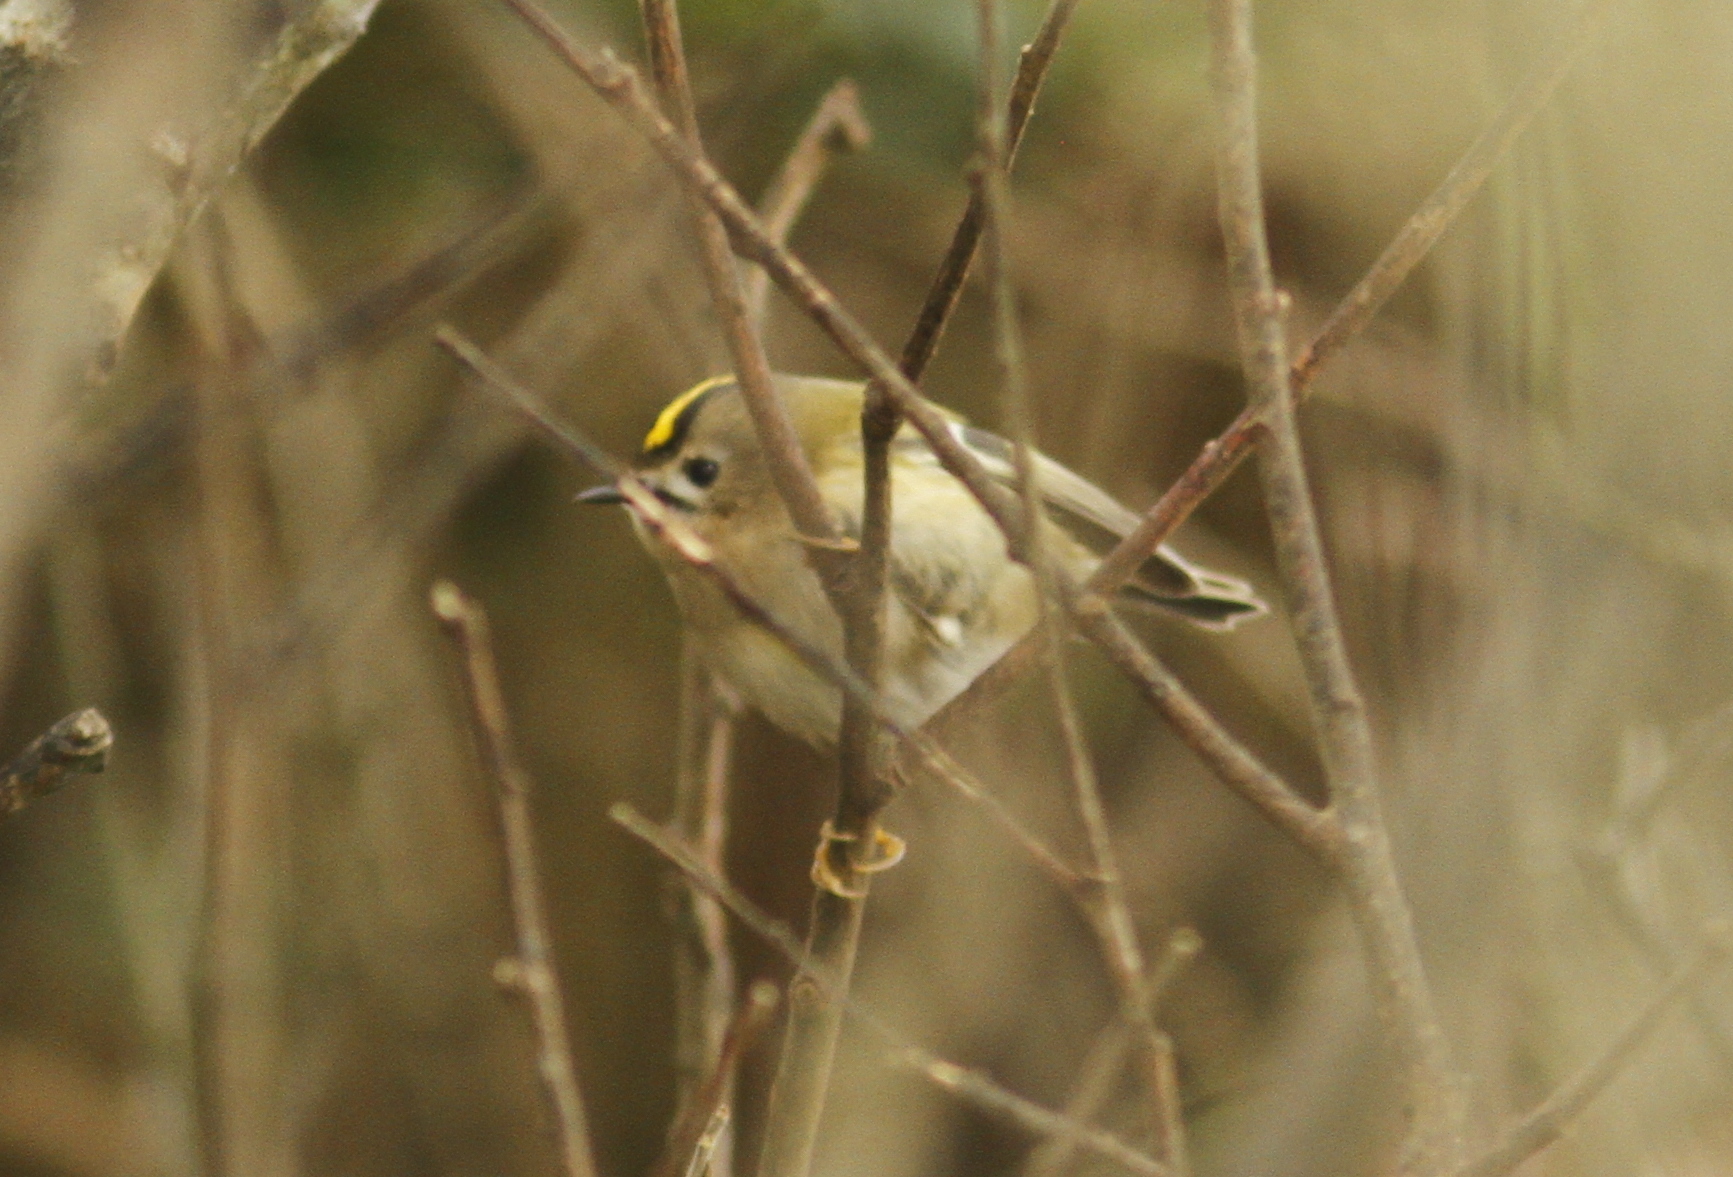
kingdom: Animalia
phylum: Chordata
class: Aves
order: Passeriformes
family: Regulidae
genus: Regulus
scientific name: Regulus regulus
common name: Goldcrest
